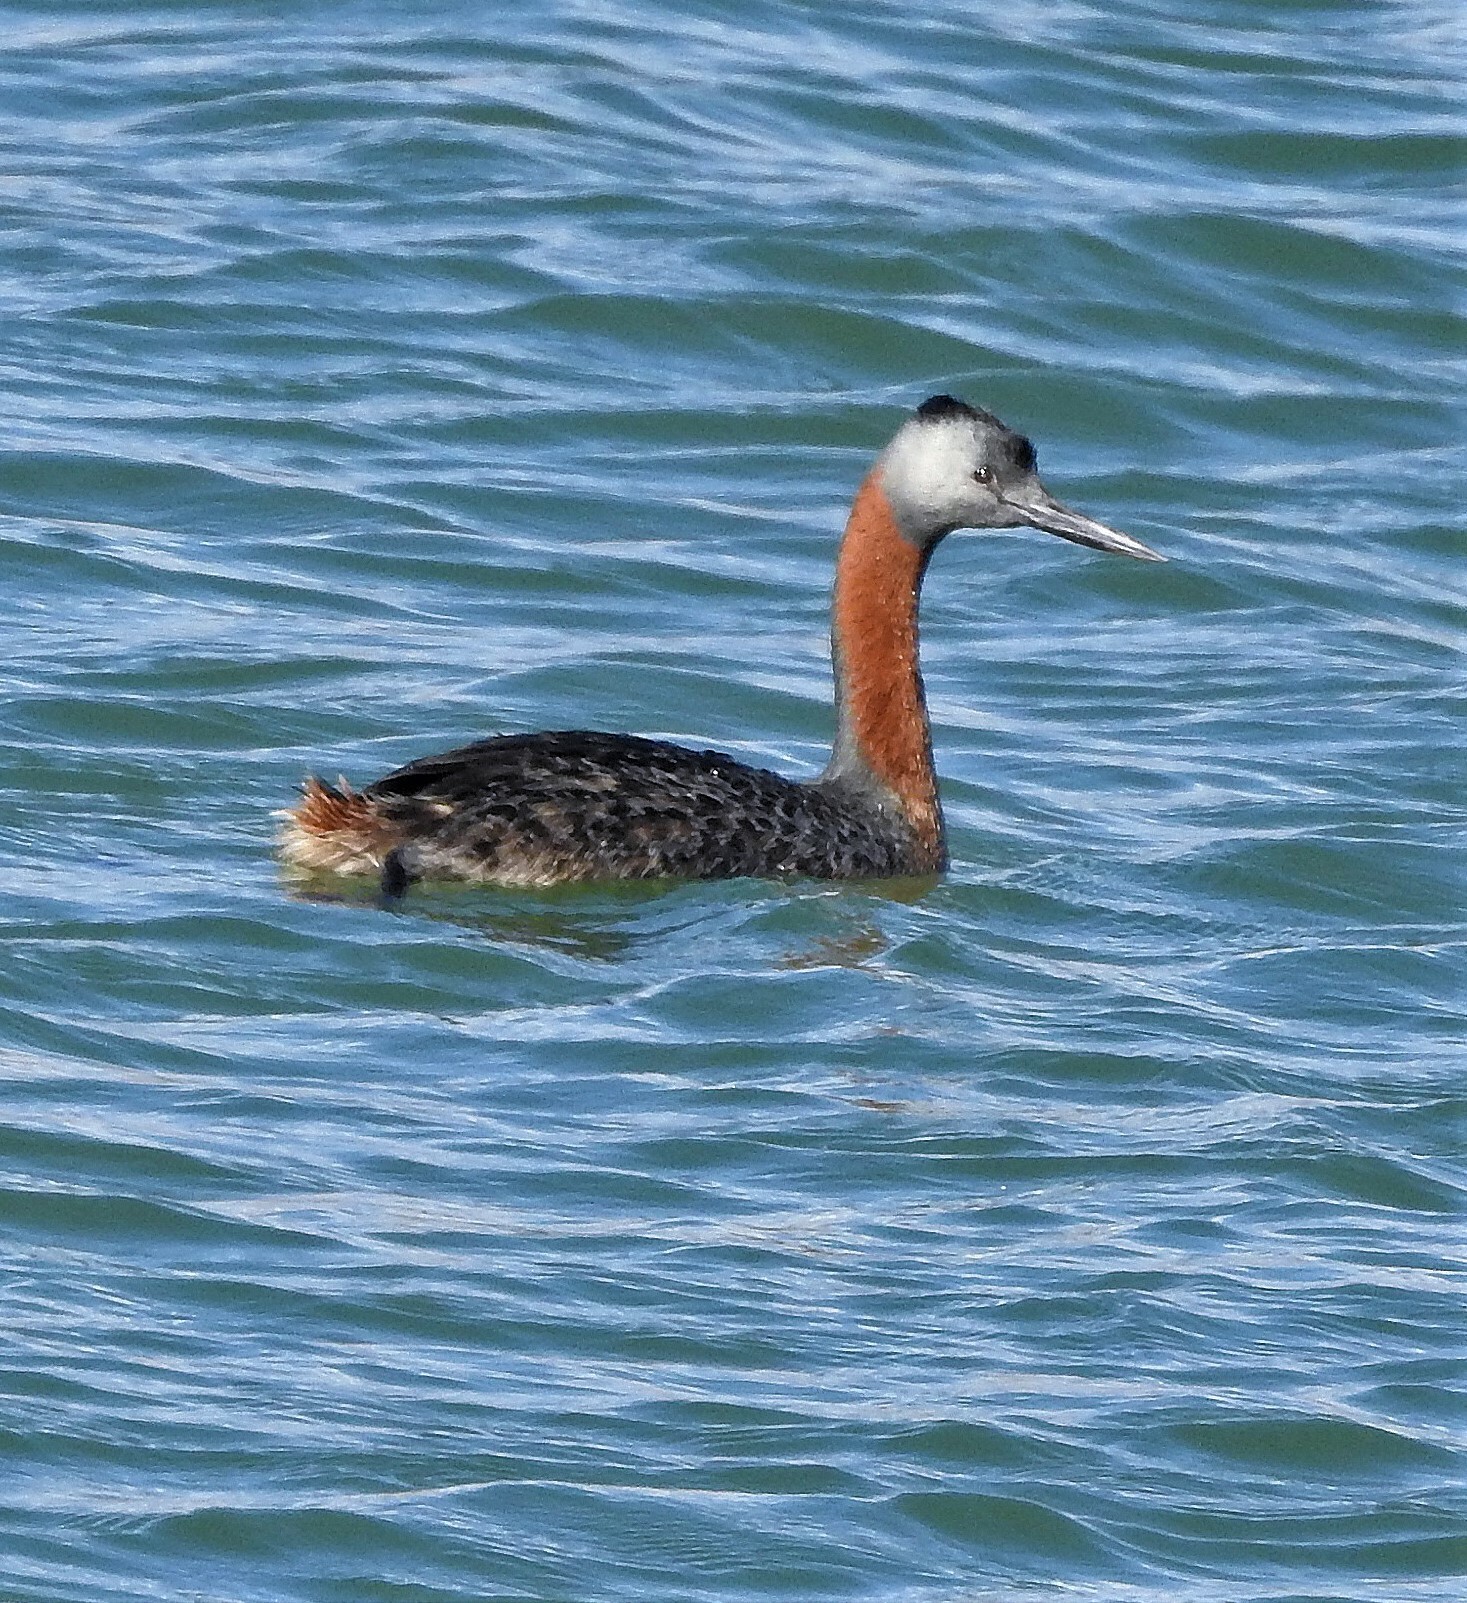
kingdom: Animalia
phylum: Chordata
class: Aves
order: Podicipediformes
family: Podicipedidae
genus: Podiceps
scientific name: Podiceps major
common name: Great grebe
